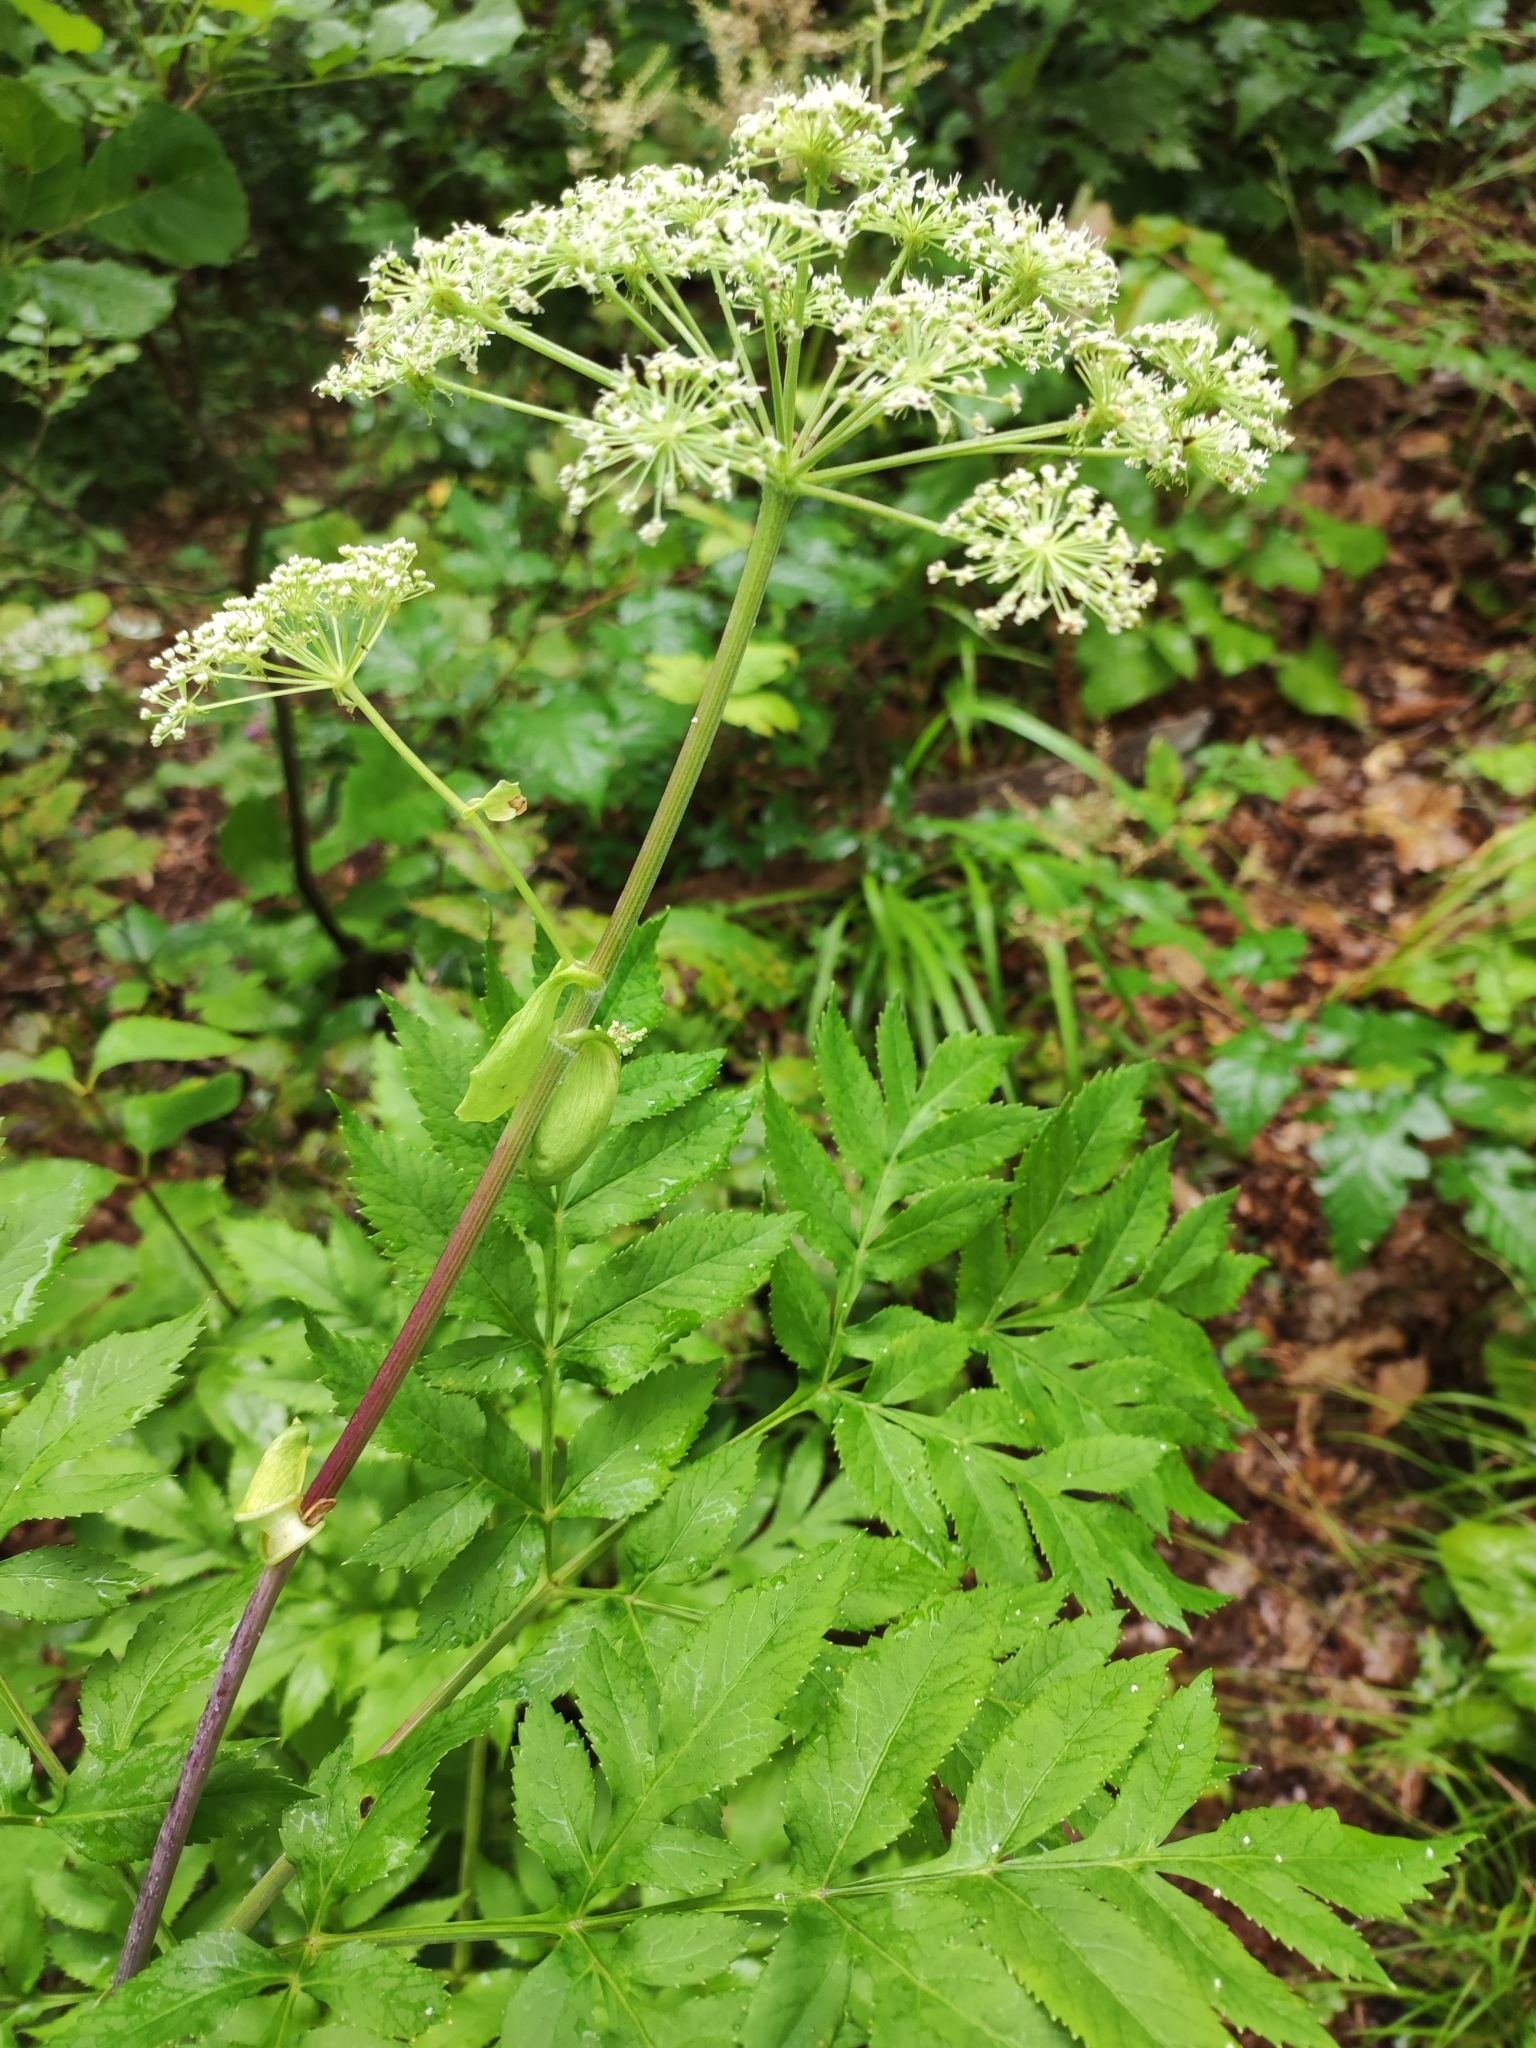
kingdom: Plantae
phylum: Tracheophyta
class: Magnoliopsida
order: Apiales
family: Apiaceae
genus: Angelica
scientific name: Angelica dahurica
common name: Dahurian angelica
